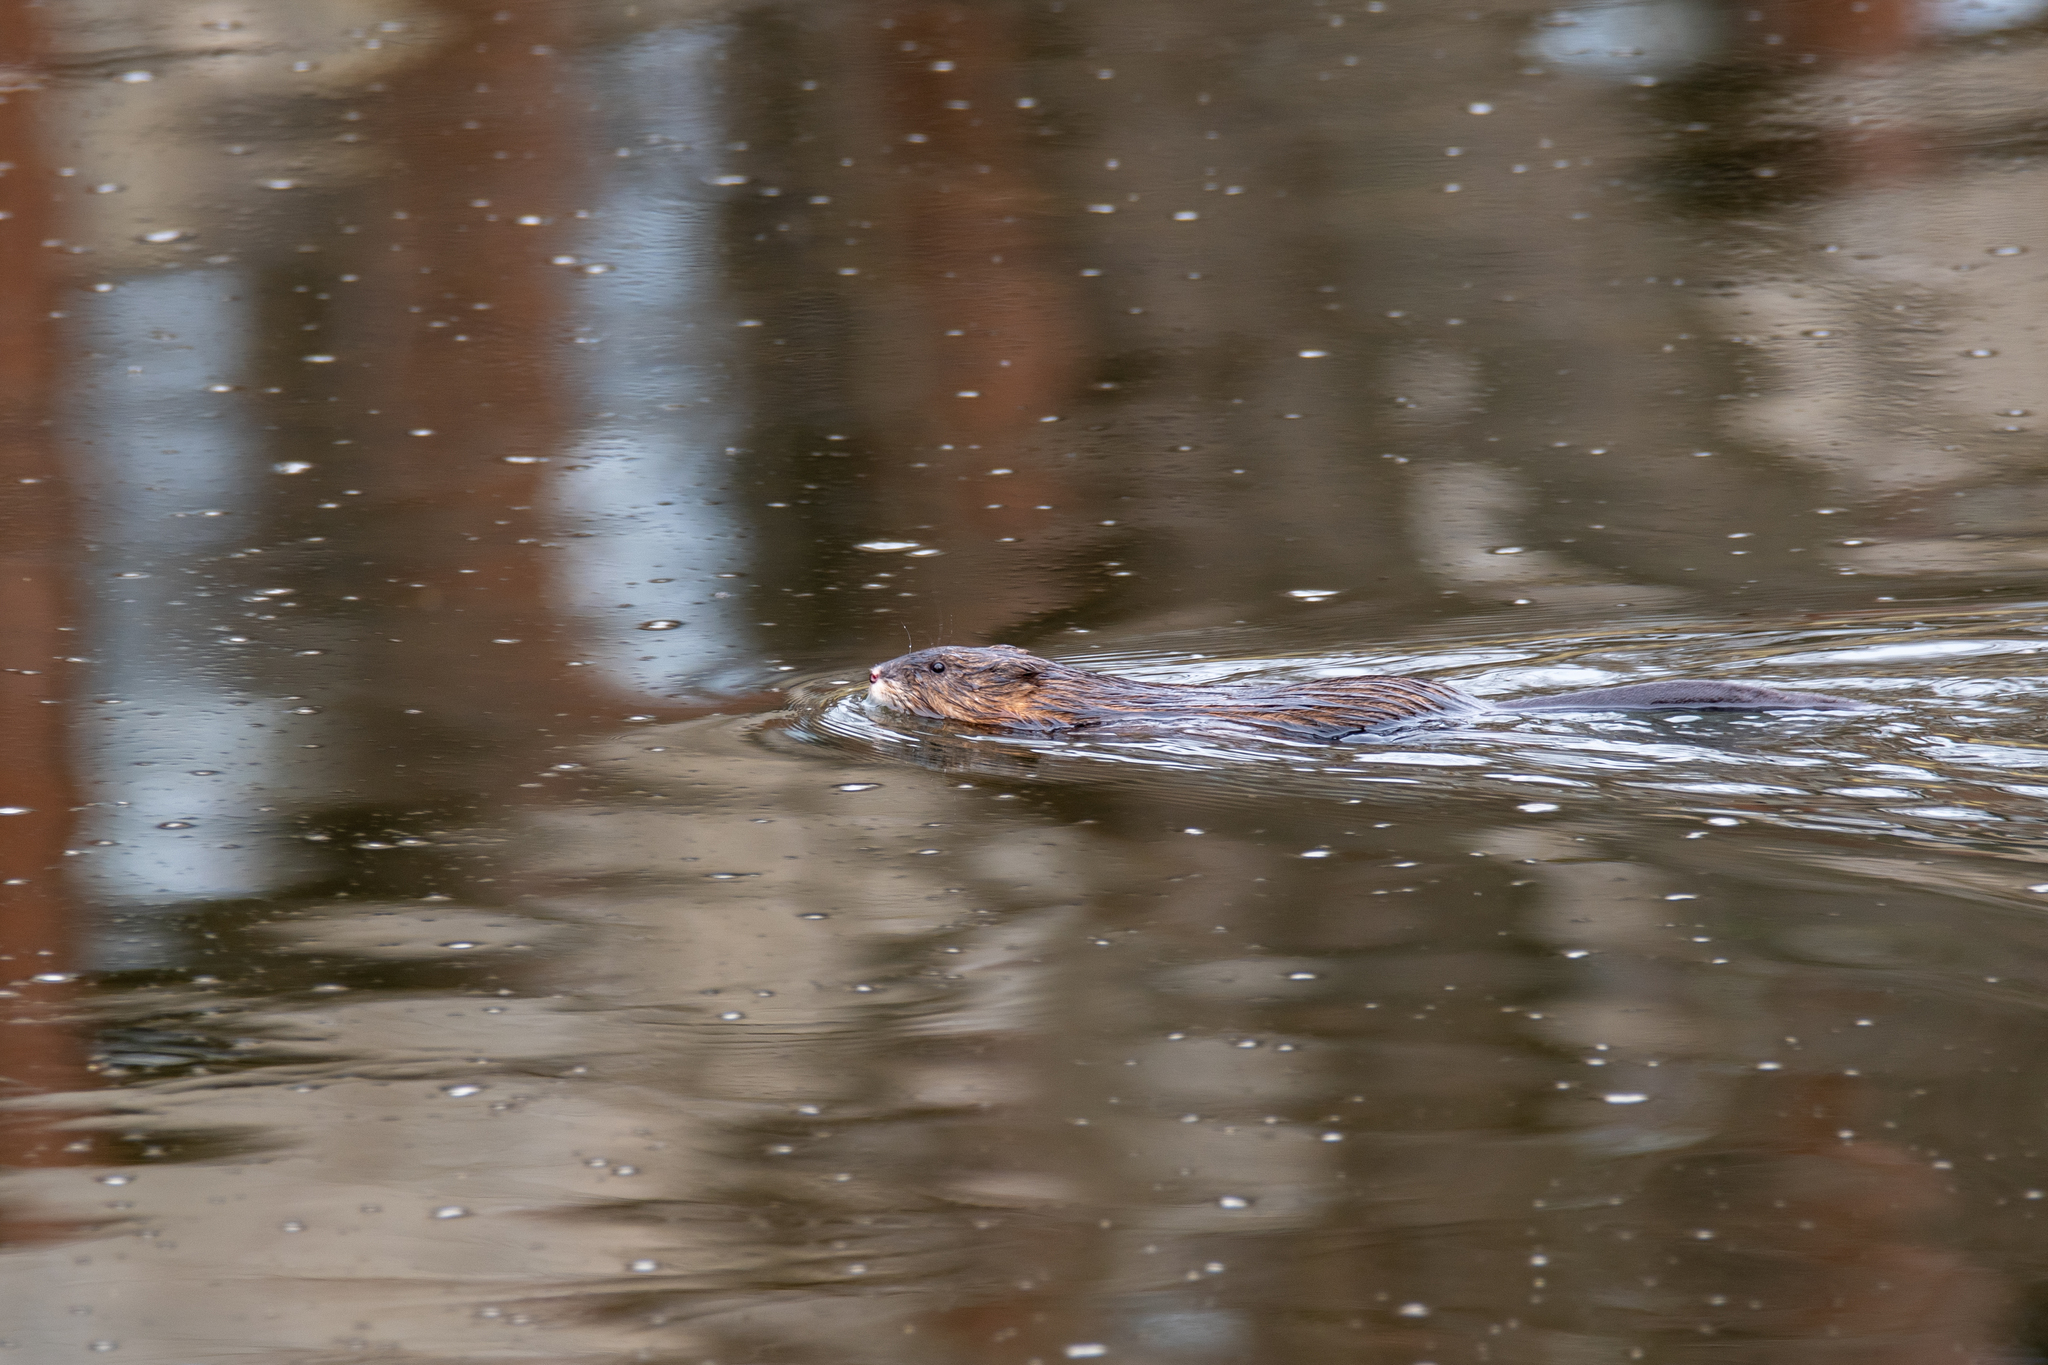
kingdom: Animalia
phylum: Chordata
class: Mammalia
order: Rodentia
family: Cricetidae
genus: Ondatra
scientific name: Ondatra zibethicus
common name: Muskrat
